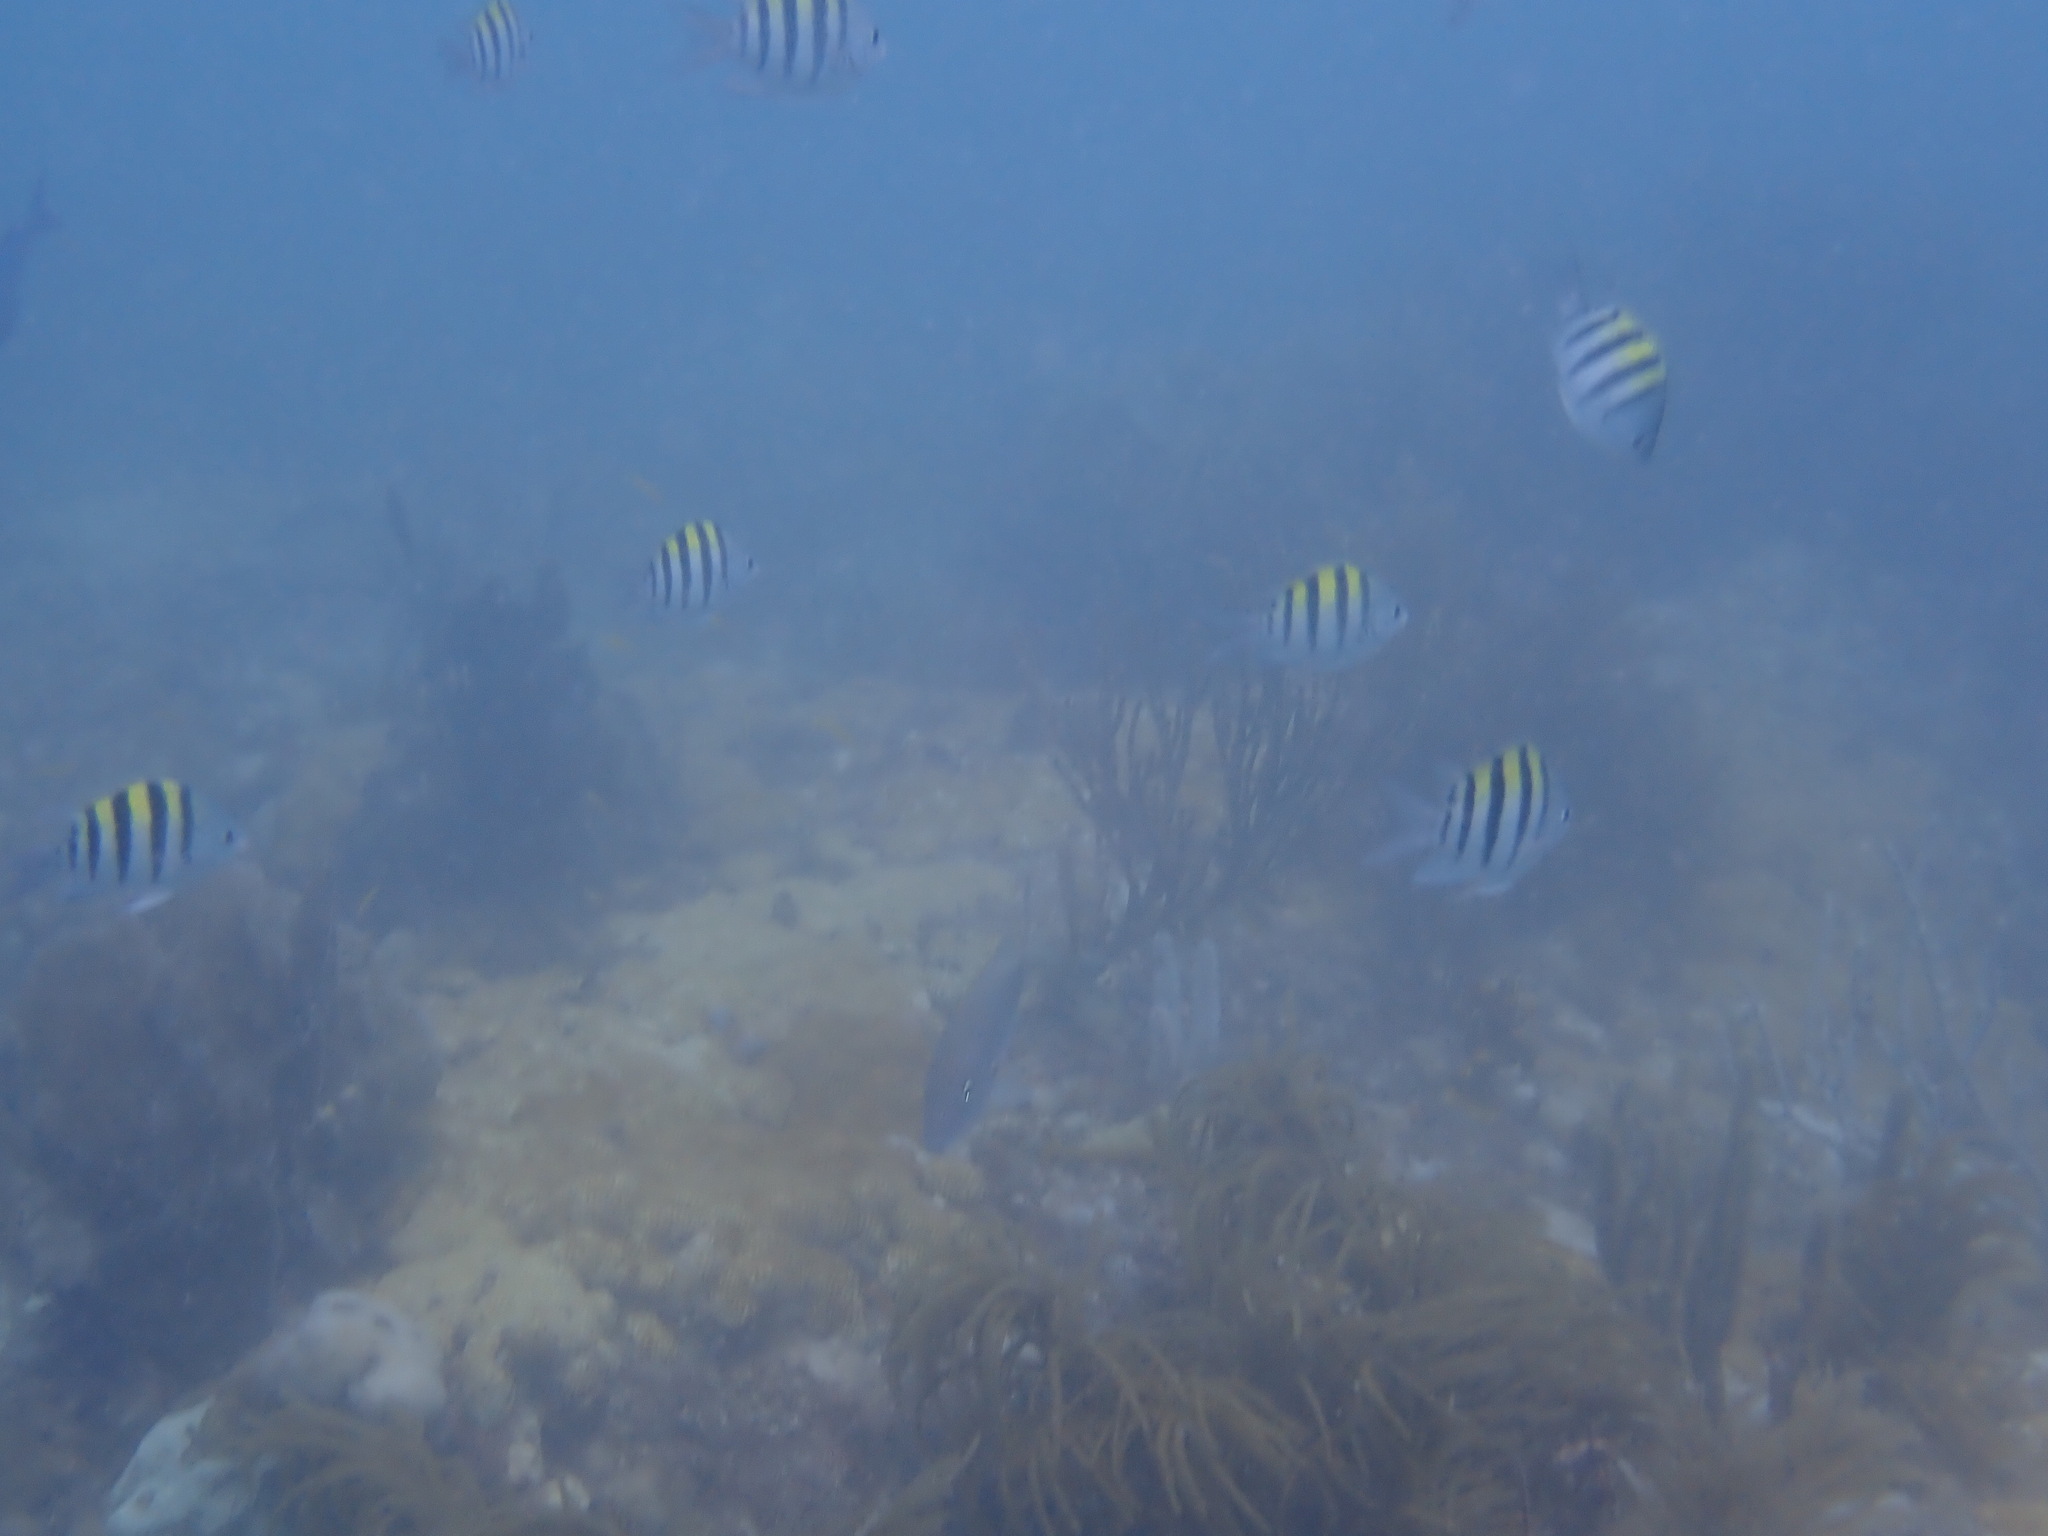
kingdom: Animalia
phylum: Chordata
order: Perciformes
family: Pomacentridae
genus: Abudefduf
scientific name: Abudefduf saxatilis
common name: Sergeant major
